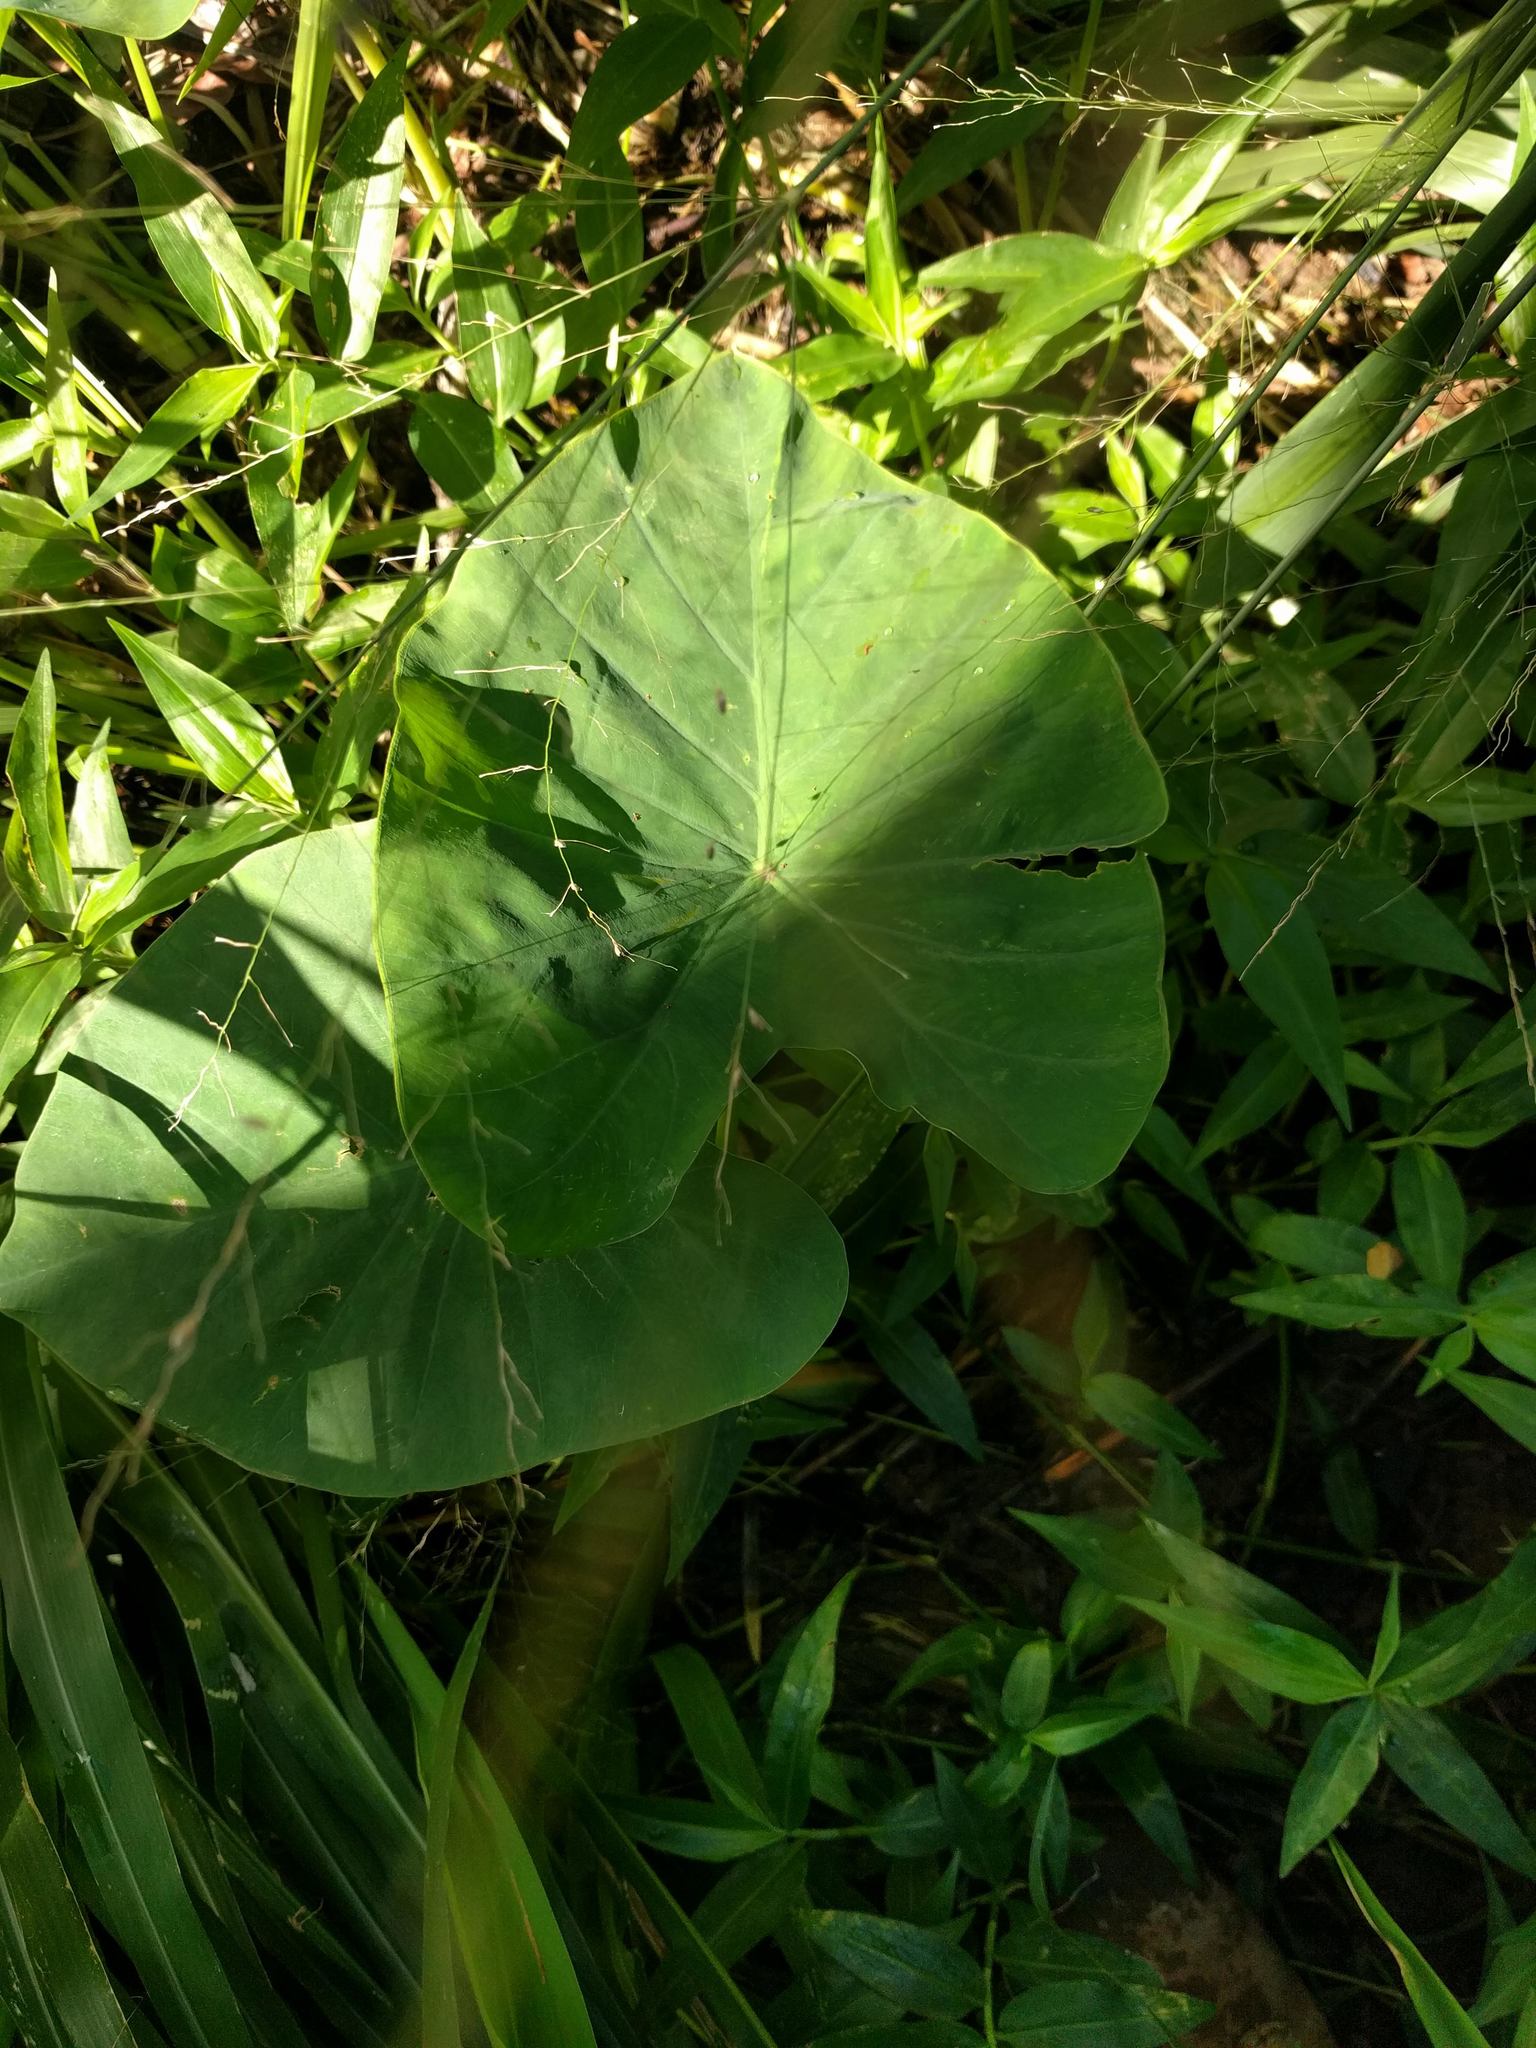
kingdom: Plantae
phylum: Tracheophyta
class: Liliopsida
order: Alismatales
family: Araceae
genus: Colocasia
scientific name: Colocasia esculenta
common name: Taro
